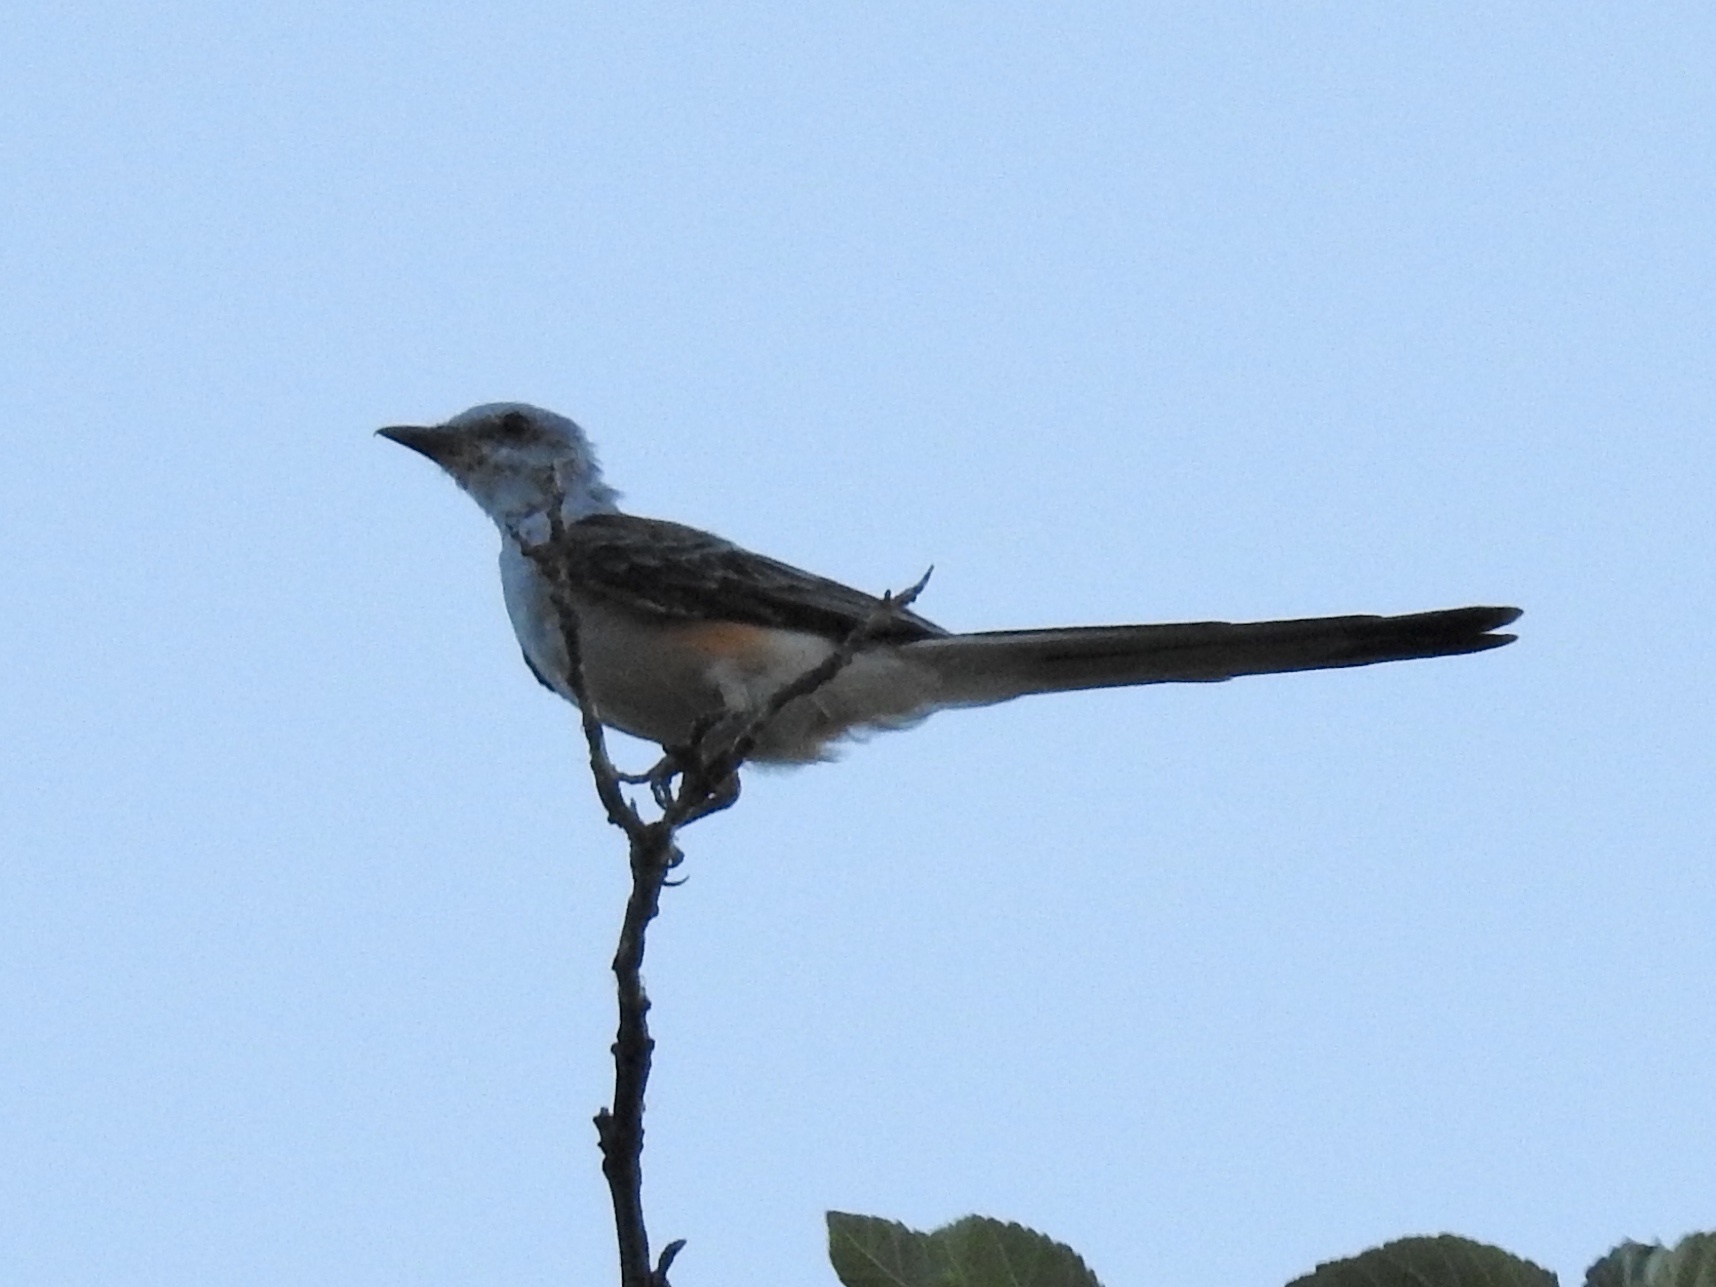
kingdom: Animalia
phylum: Chordata
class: Aves
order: Passeriformes
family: Tyrannidae
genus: Tyrannus
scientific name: Tyrannus forficatus
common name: Scissor-tailed flycatcher
